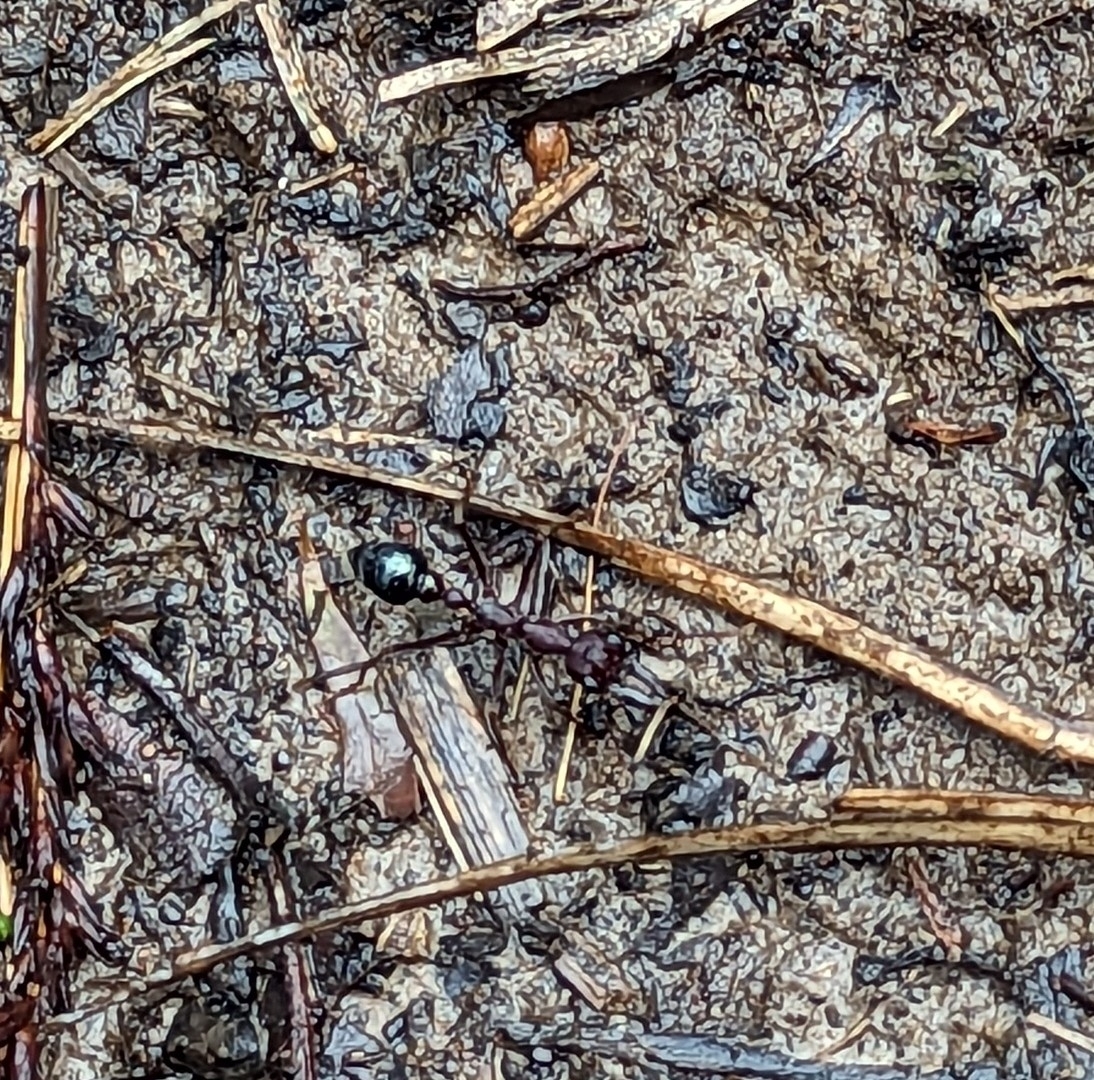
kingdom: Animalia
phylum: Arthropoda
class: Insecta
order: Hymenoptera
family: Formicidae
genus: Myrmecia
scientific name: Myrmecia forficata
